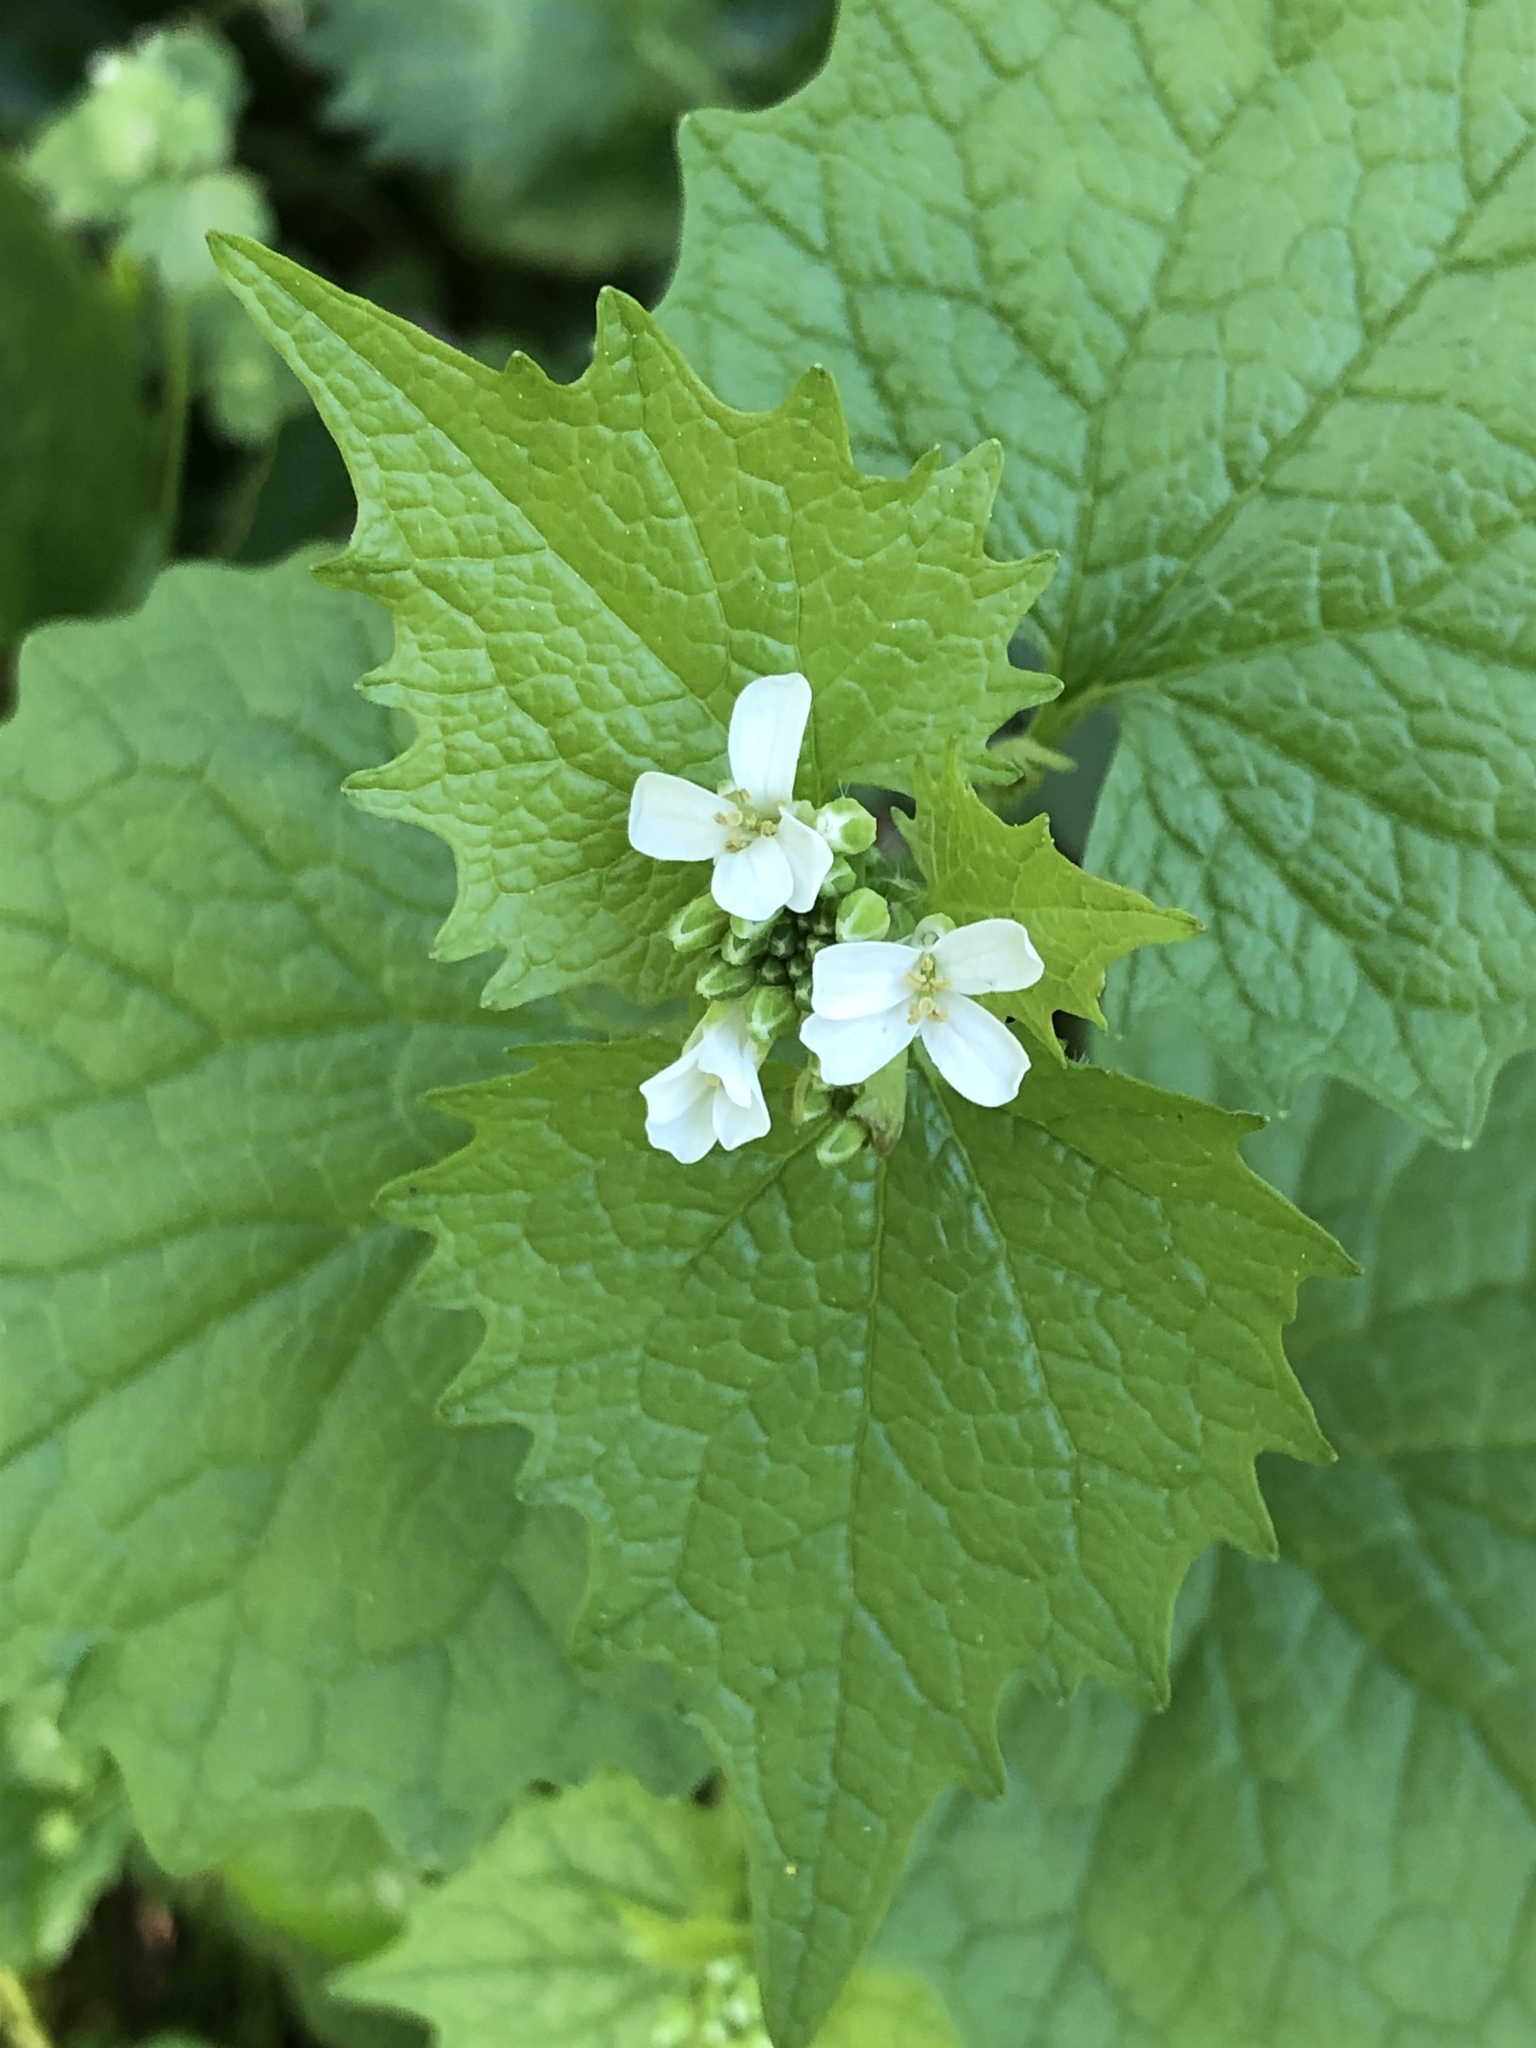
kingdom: Plantae
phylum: Tracheophyta
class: Magnoliopsida
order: Brassicales
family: Brassicaceae
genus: Alliaria
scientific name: Alliaria petiolata
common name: Garlic mustard
